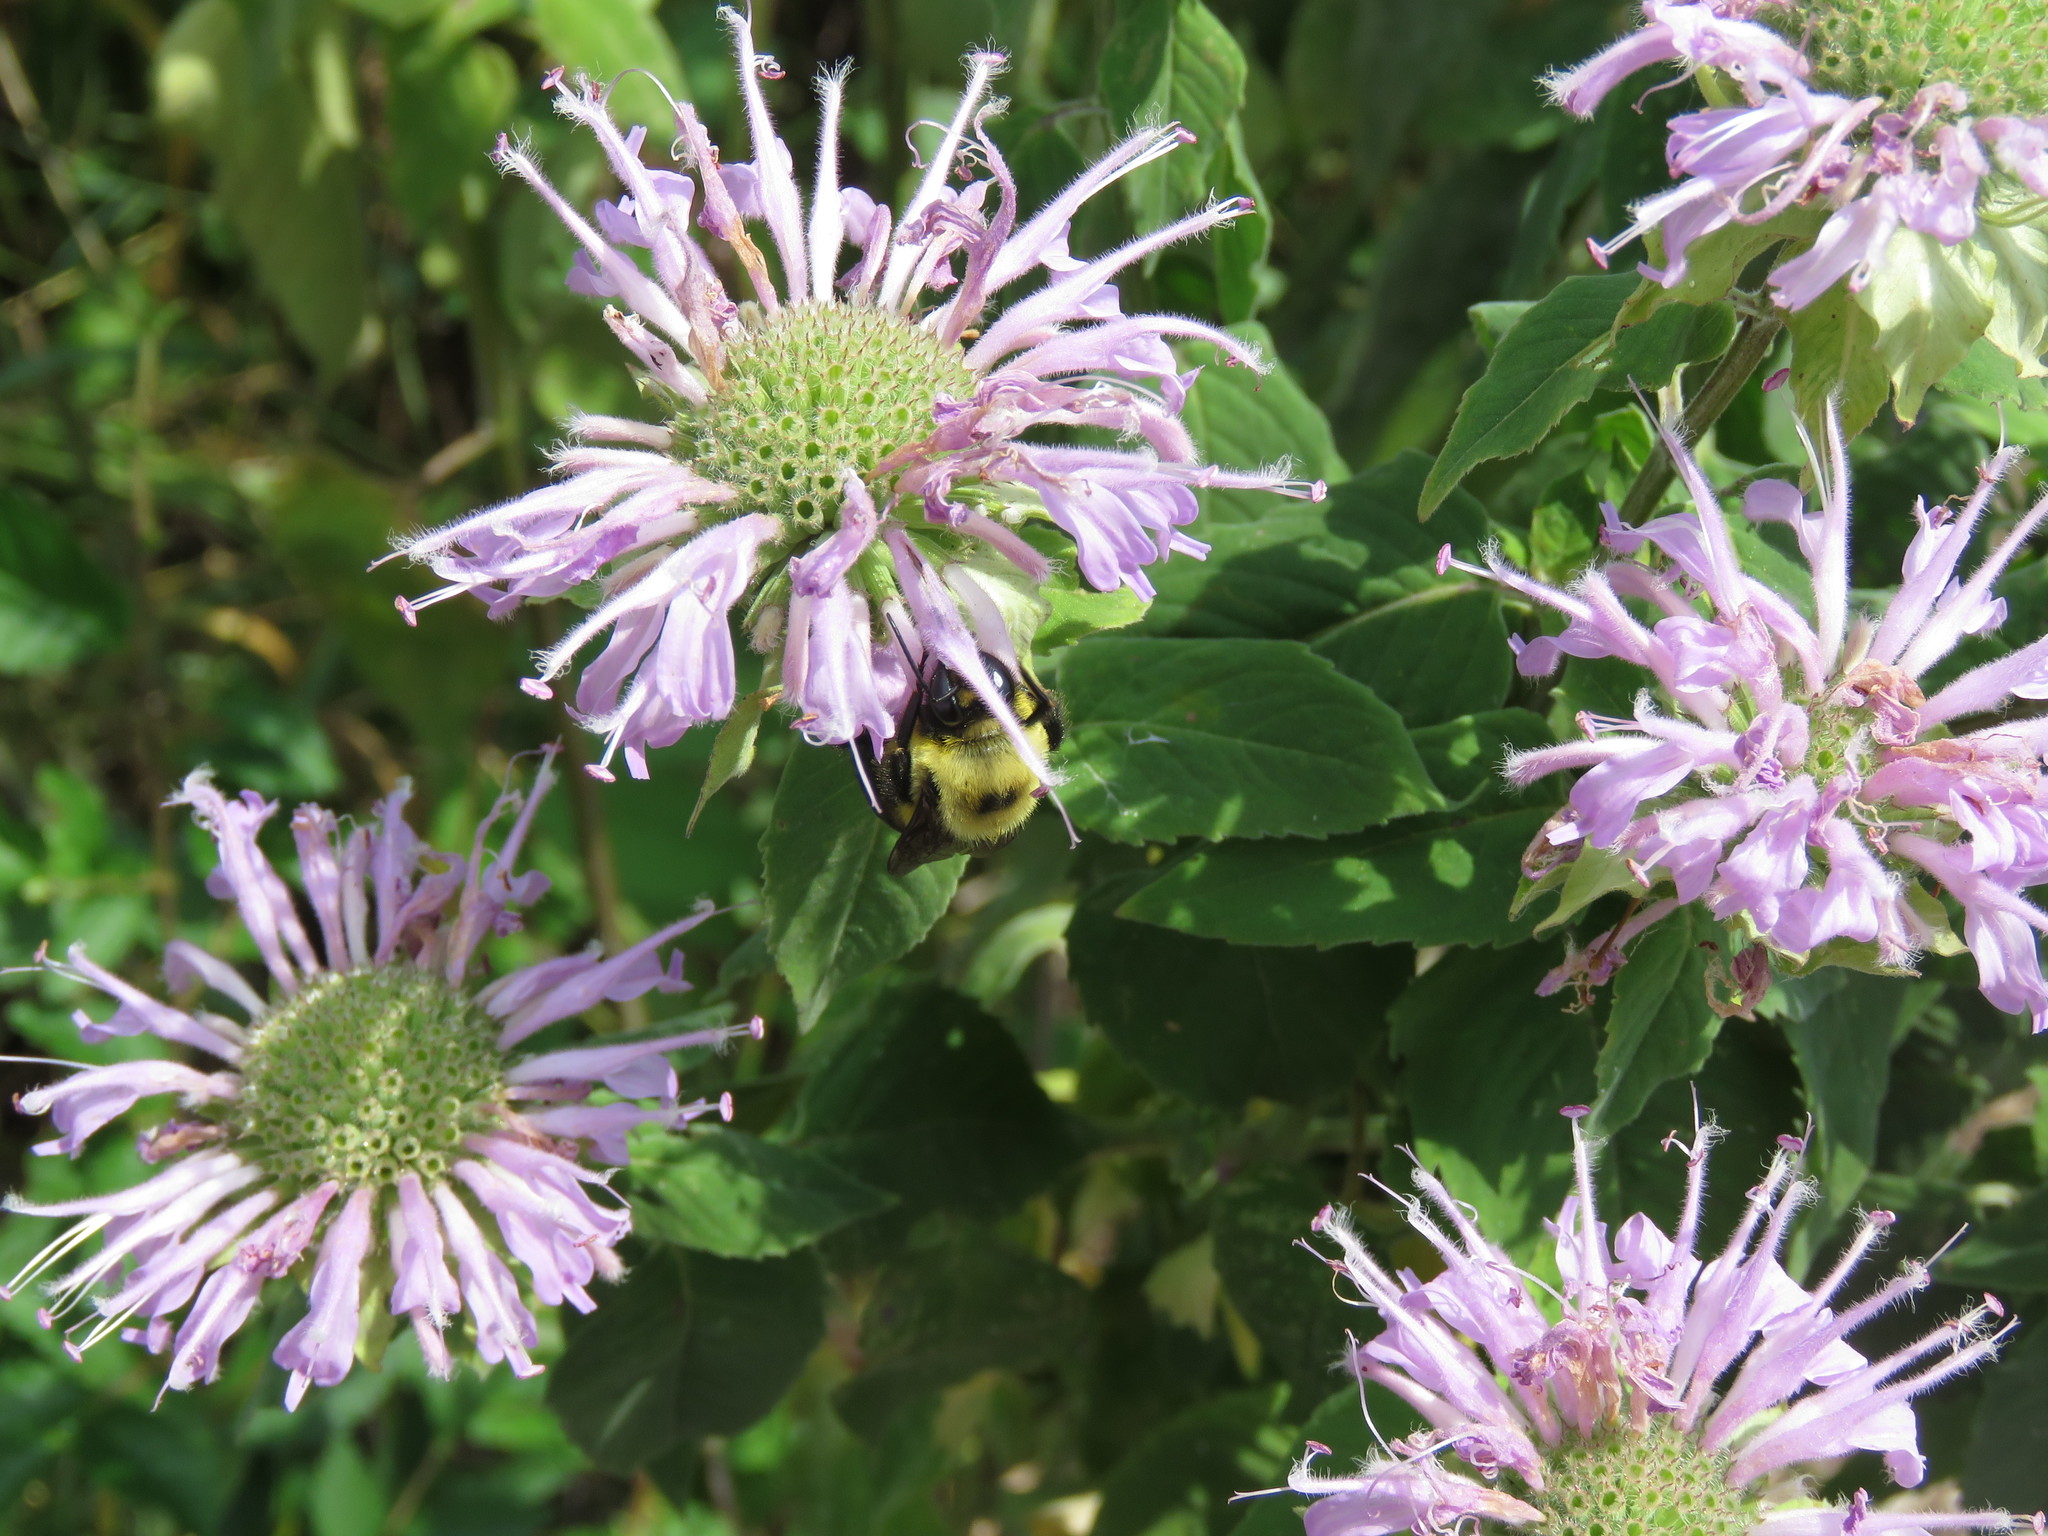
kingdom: Animalia
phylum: Arthropoda
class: Insecta
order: Hymenoptera
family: Apidae
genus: Bombus
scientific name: Bombus griseocollis
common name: Brown-belted bumble bee
